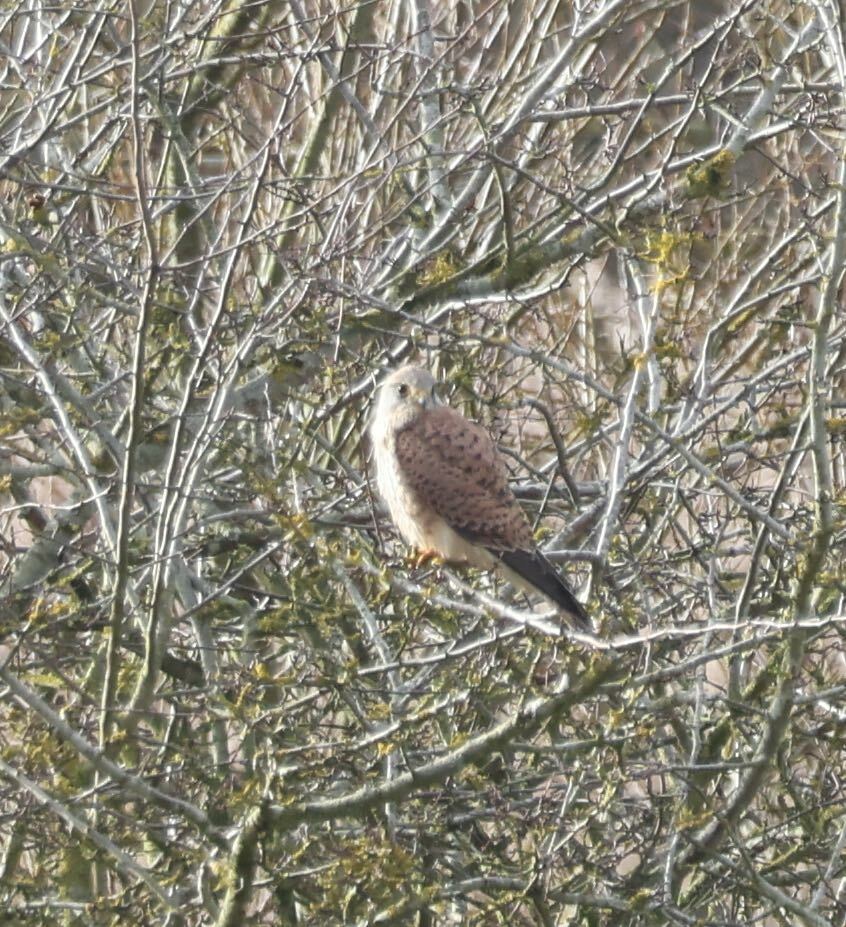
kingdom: Animalia
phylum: Chordata
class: Aves
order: Falconiformes
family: Falconidae
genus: Falco
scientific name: Falco tinnunculus
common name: Common kestrel
